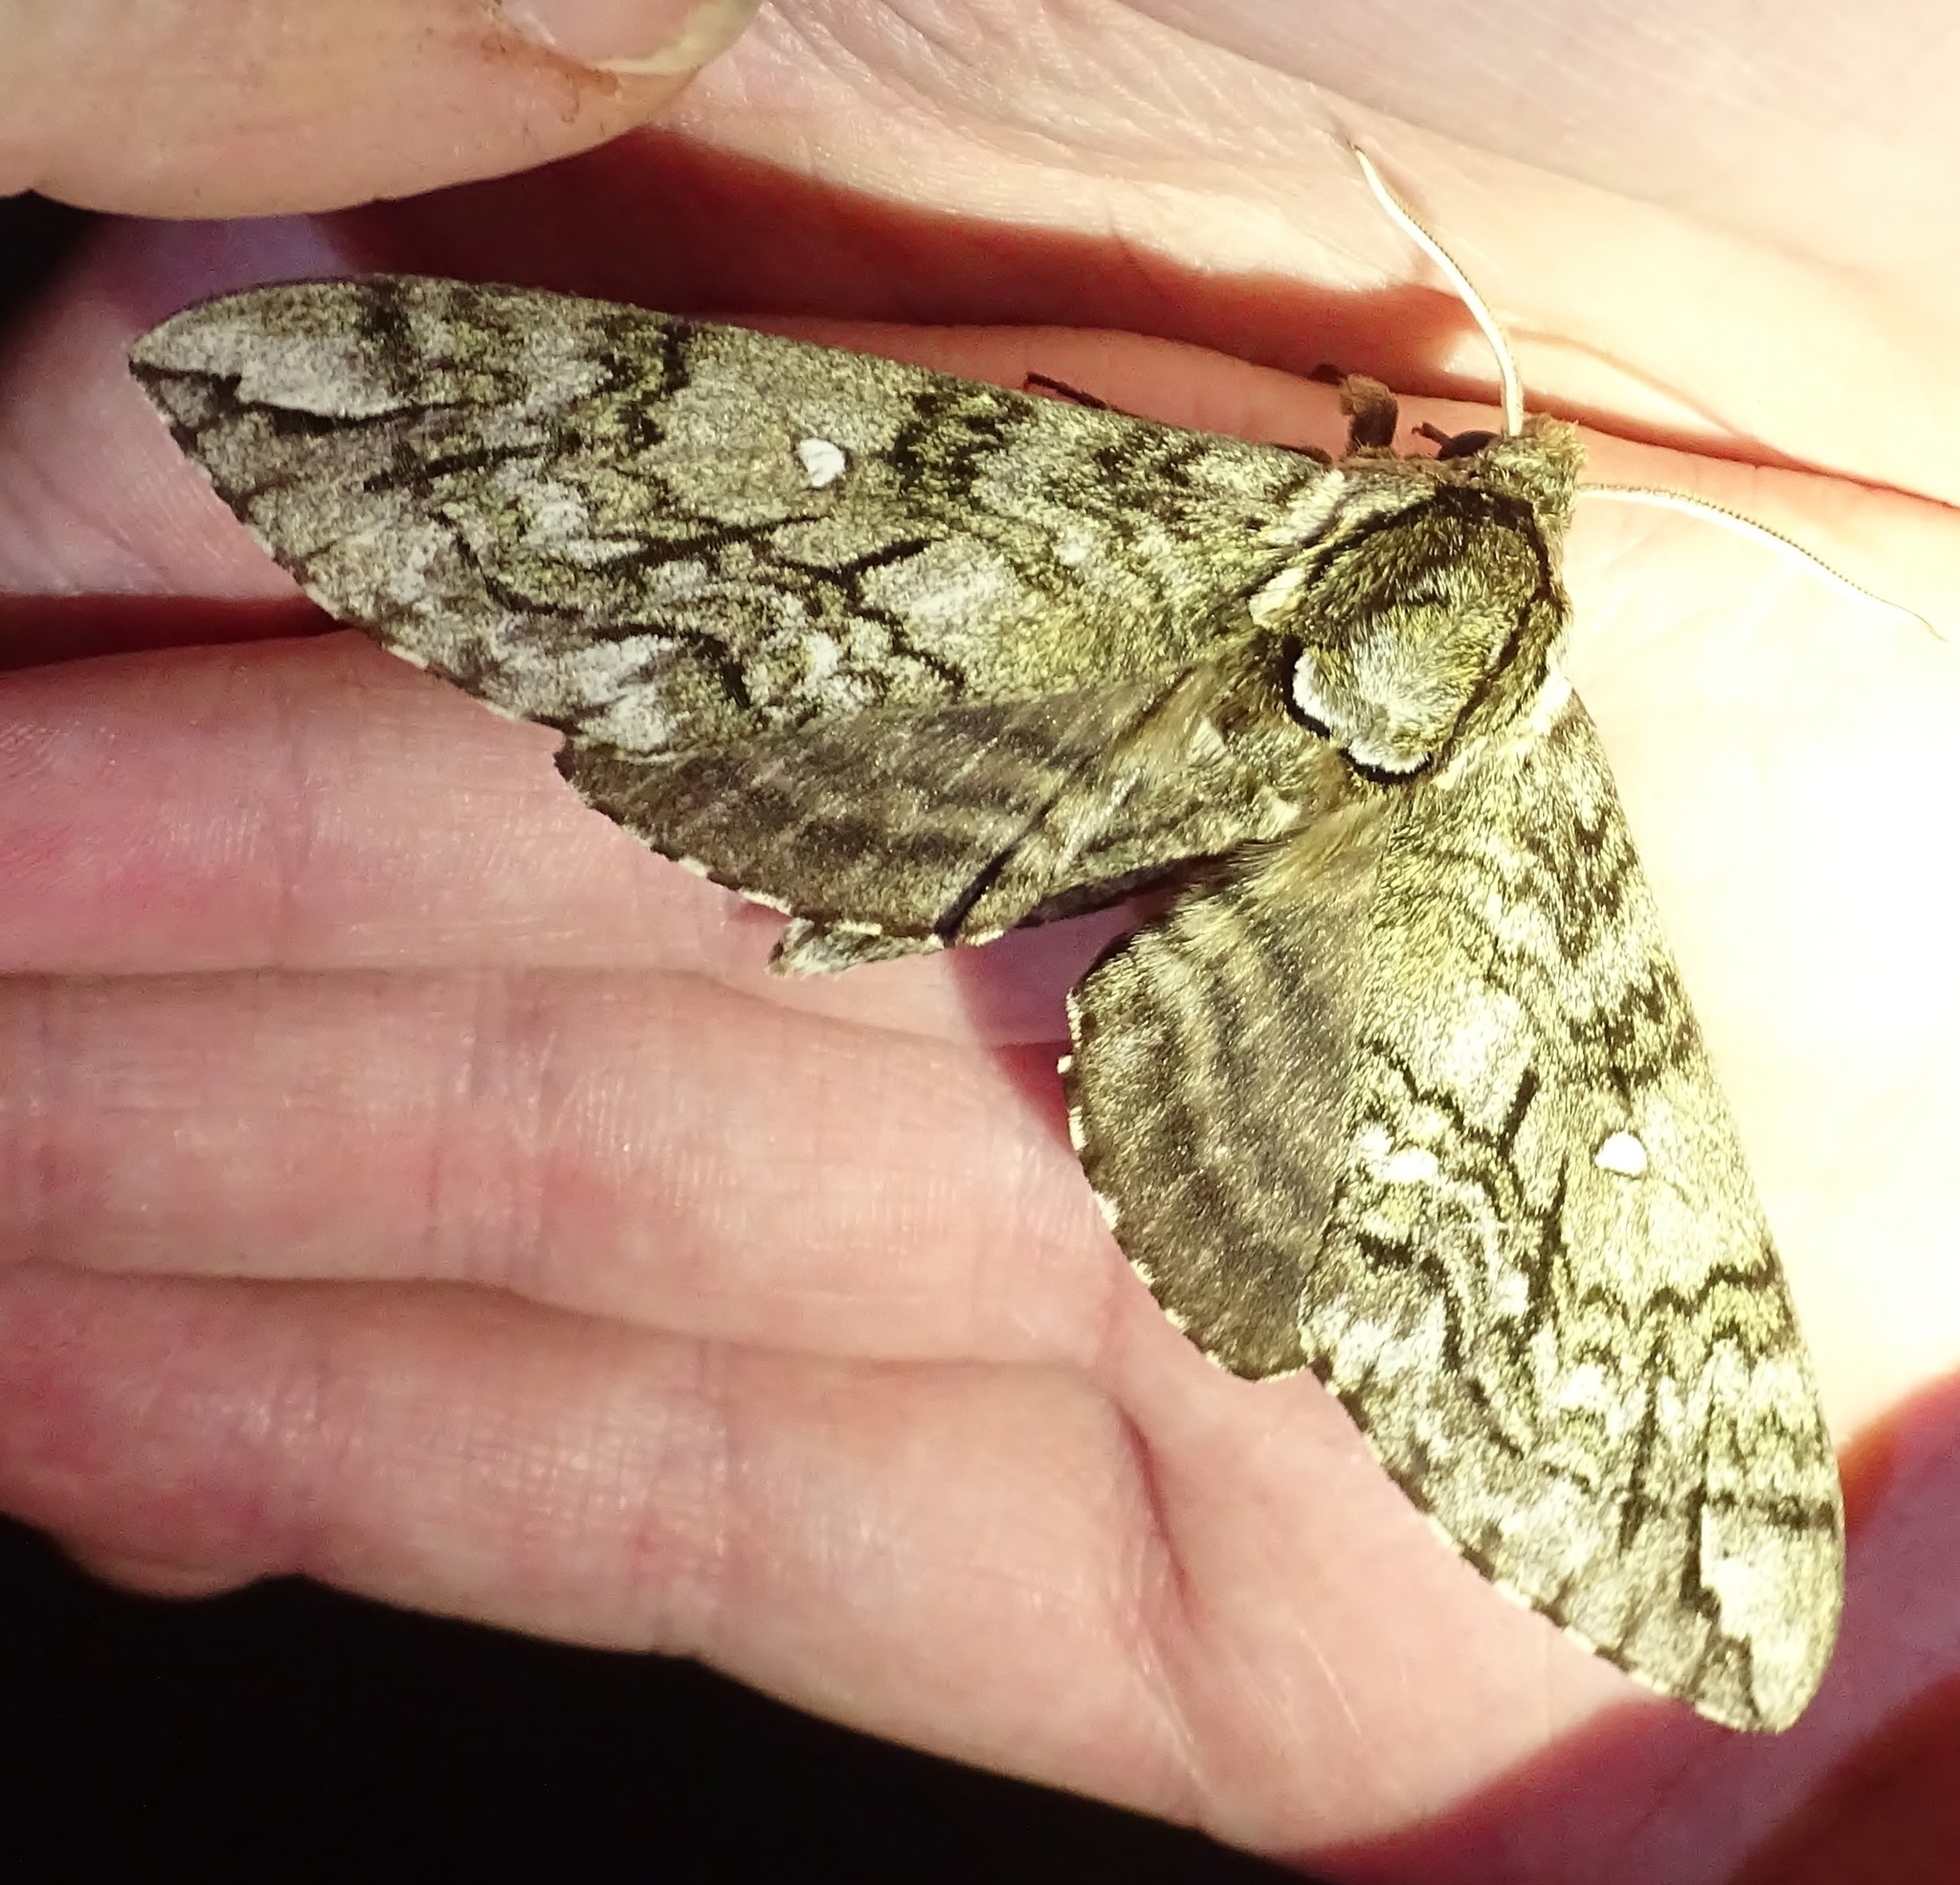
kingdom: Animalia
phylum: Arthropoda
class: Insecta
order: Lepidoptera
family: Sphingidae
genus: Ceratomia
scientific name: Ceratomia undulosa
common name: Waved sphinx
